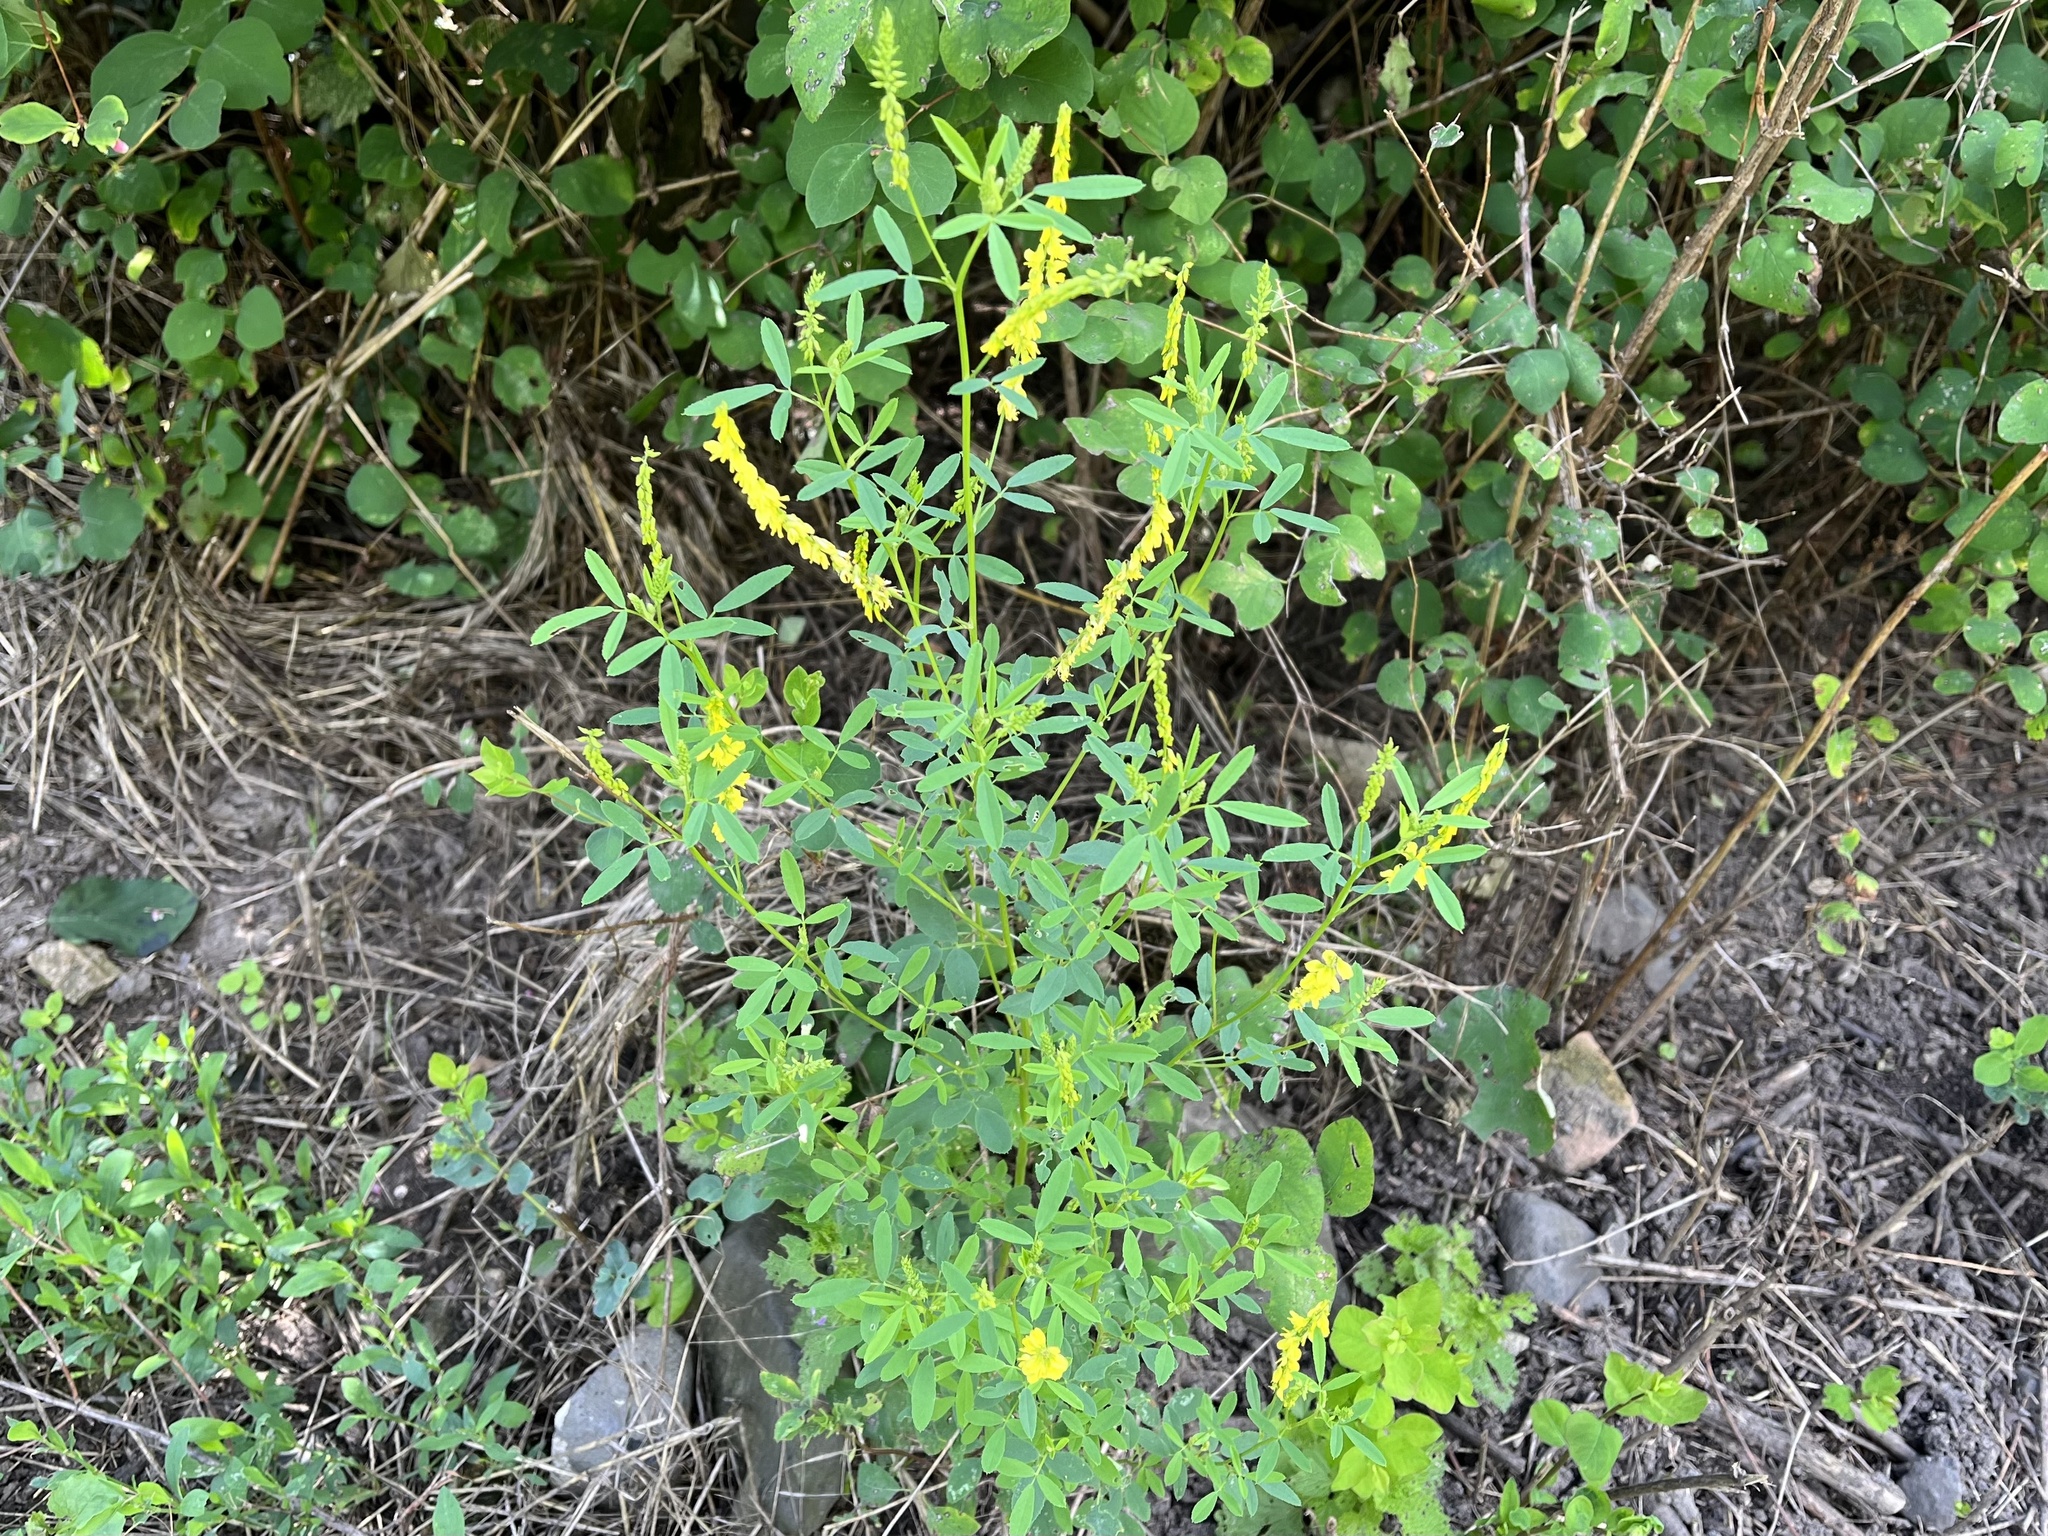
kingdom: Plantae
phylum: Tracheophyta
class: Magnoliopsida
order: Fabales
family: Fabaceae
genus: Melilotus
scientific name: Melilotus officinalis
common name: Sweetclover
